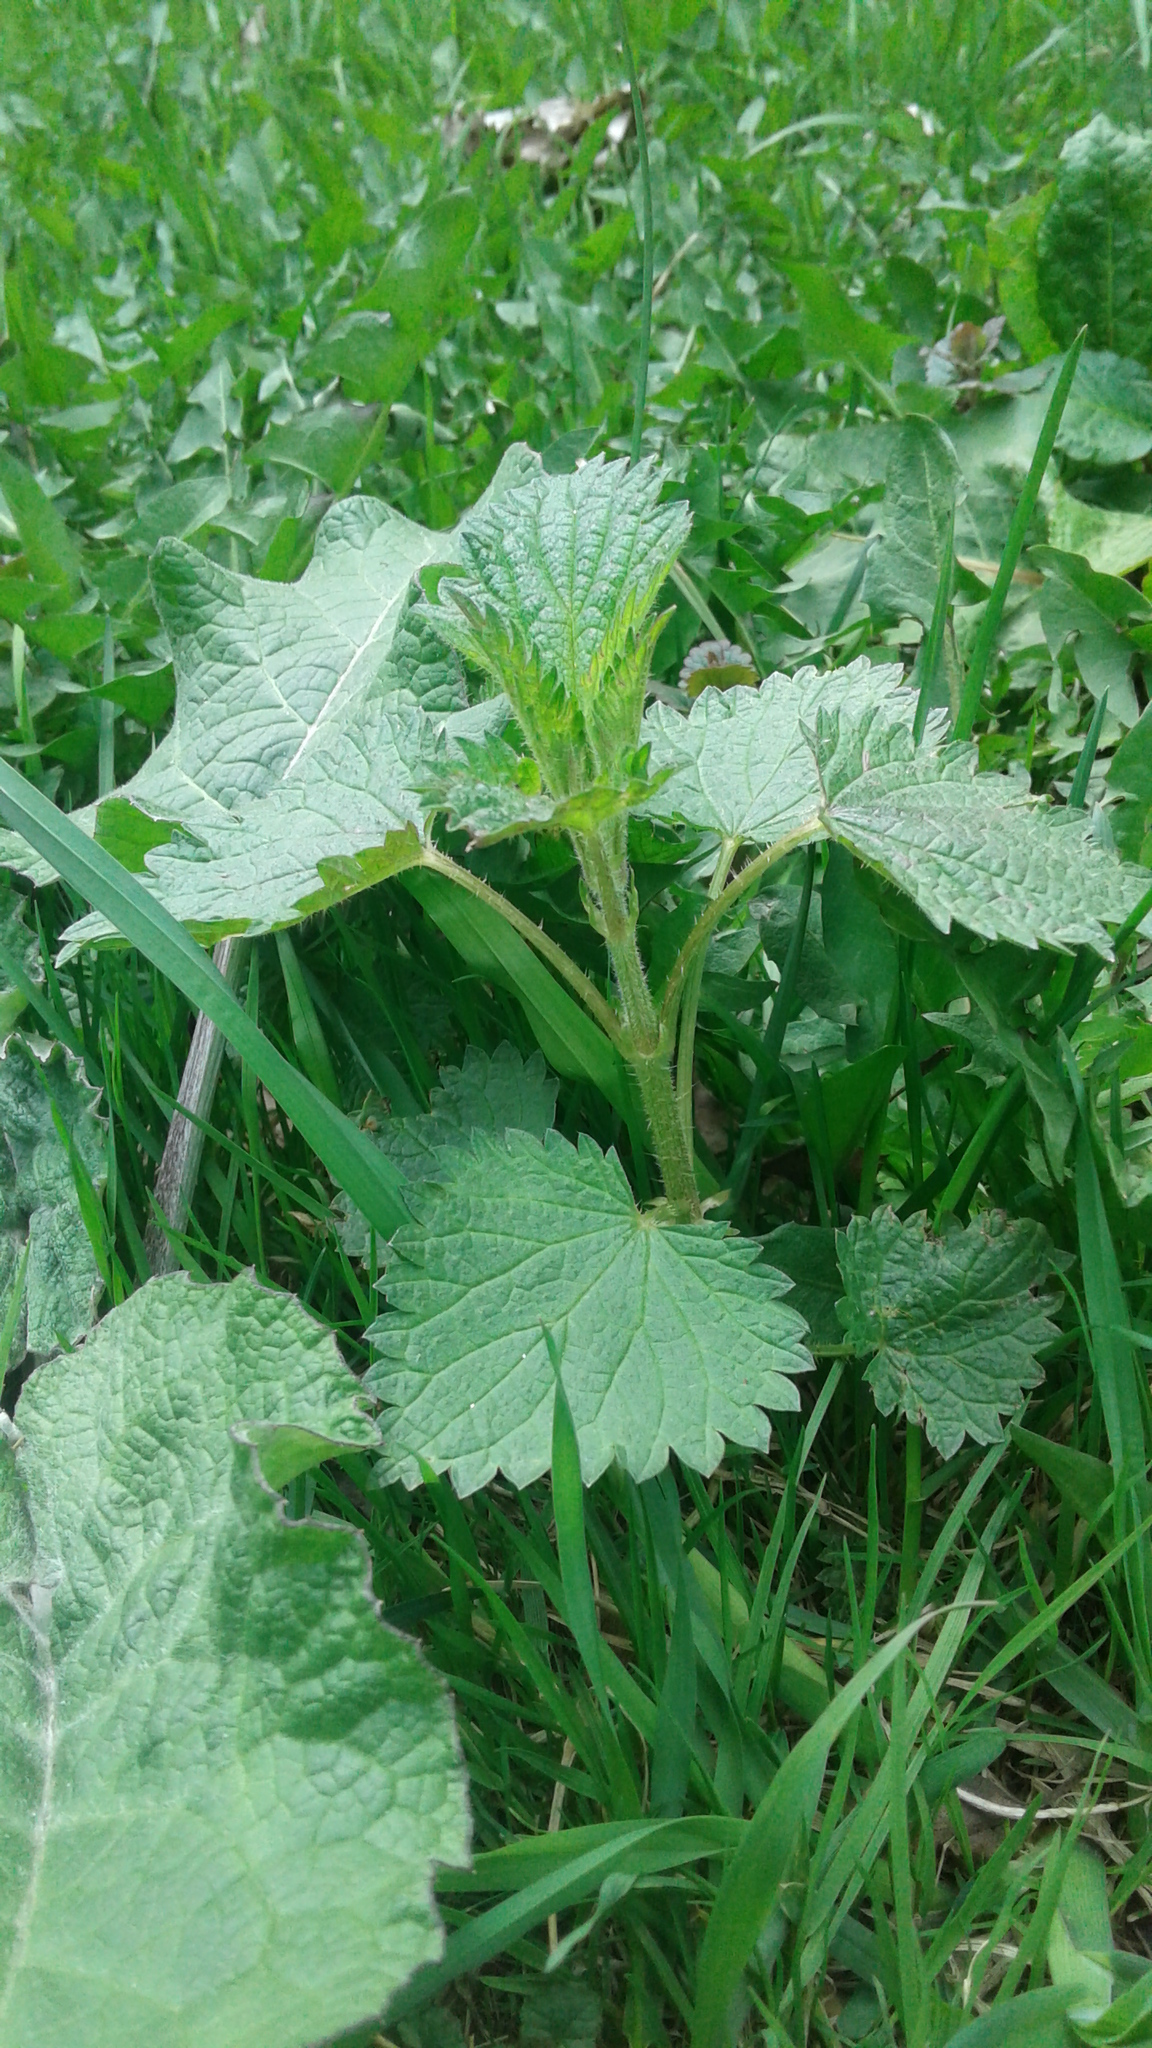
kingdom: Plantae
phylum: Tracheophyta
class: Magnoliopsida
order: Rosales
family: Urticaceae
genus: Urtica
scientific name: Urtica dioica
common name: Common nettle
